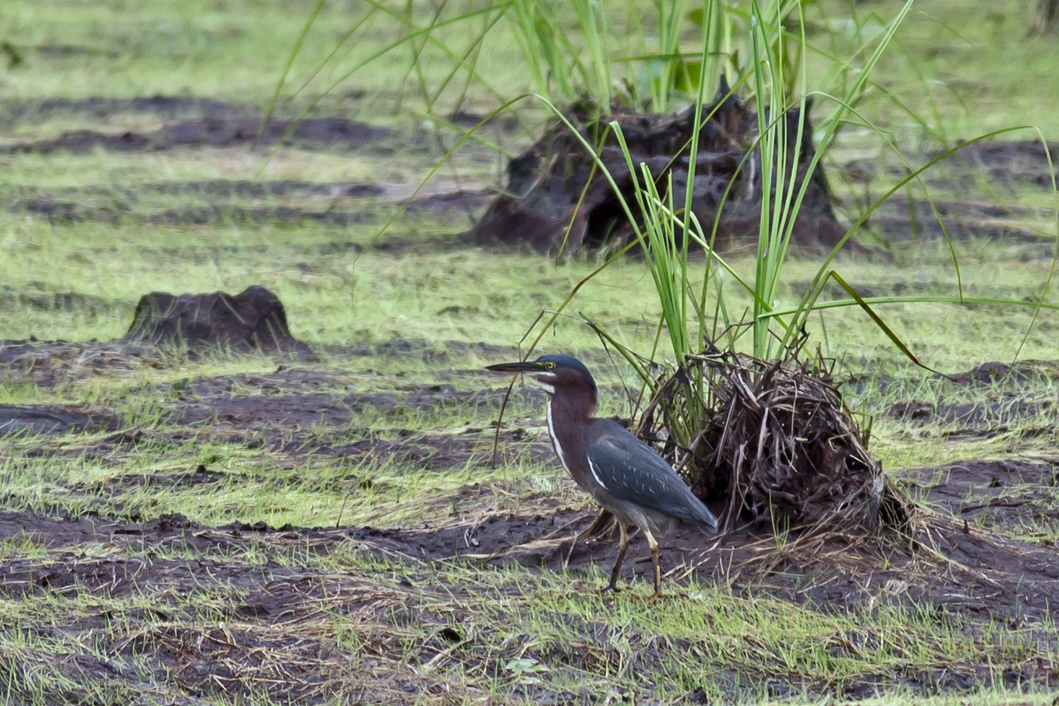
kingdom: Animalia
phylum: Chordata
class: Aves
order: Pelecaniformes
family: Ardeidae
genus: Butorides
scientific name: Butorides virescens
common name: Green heron
